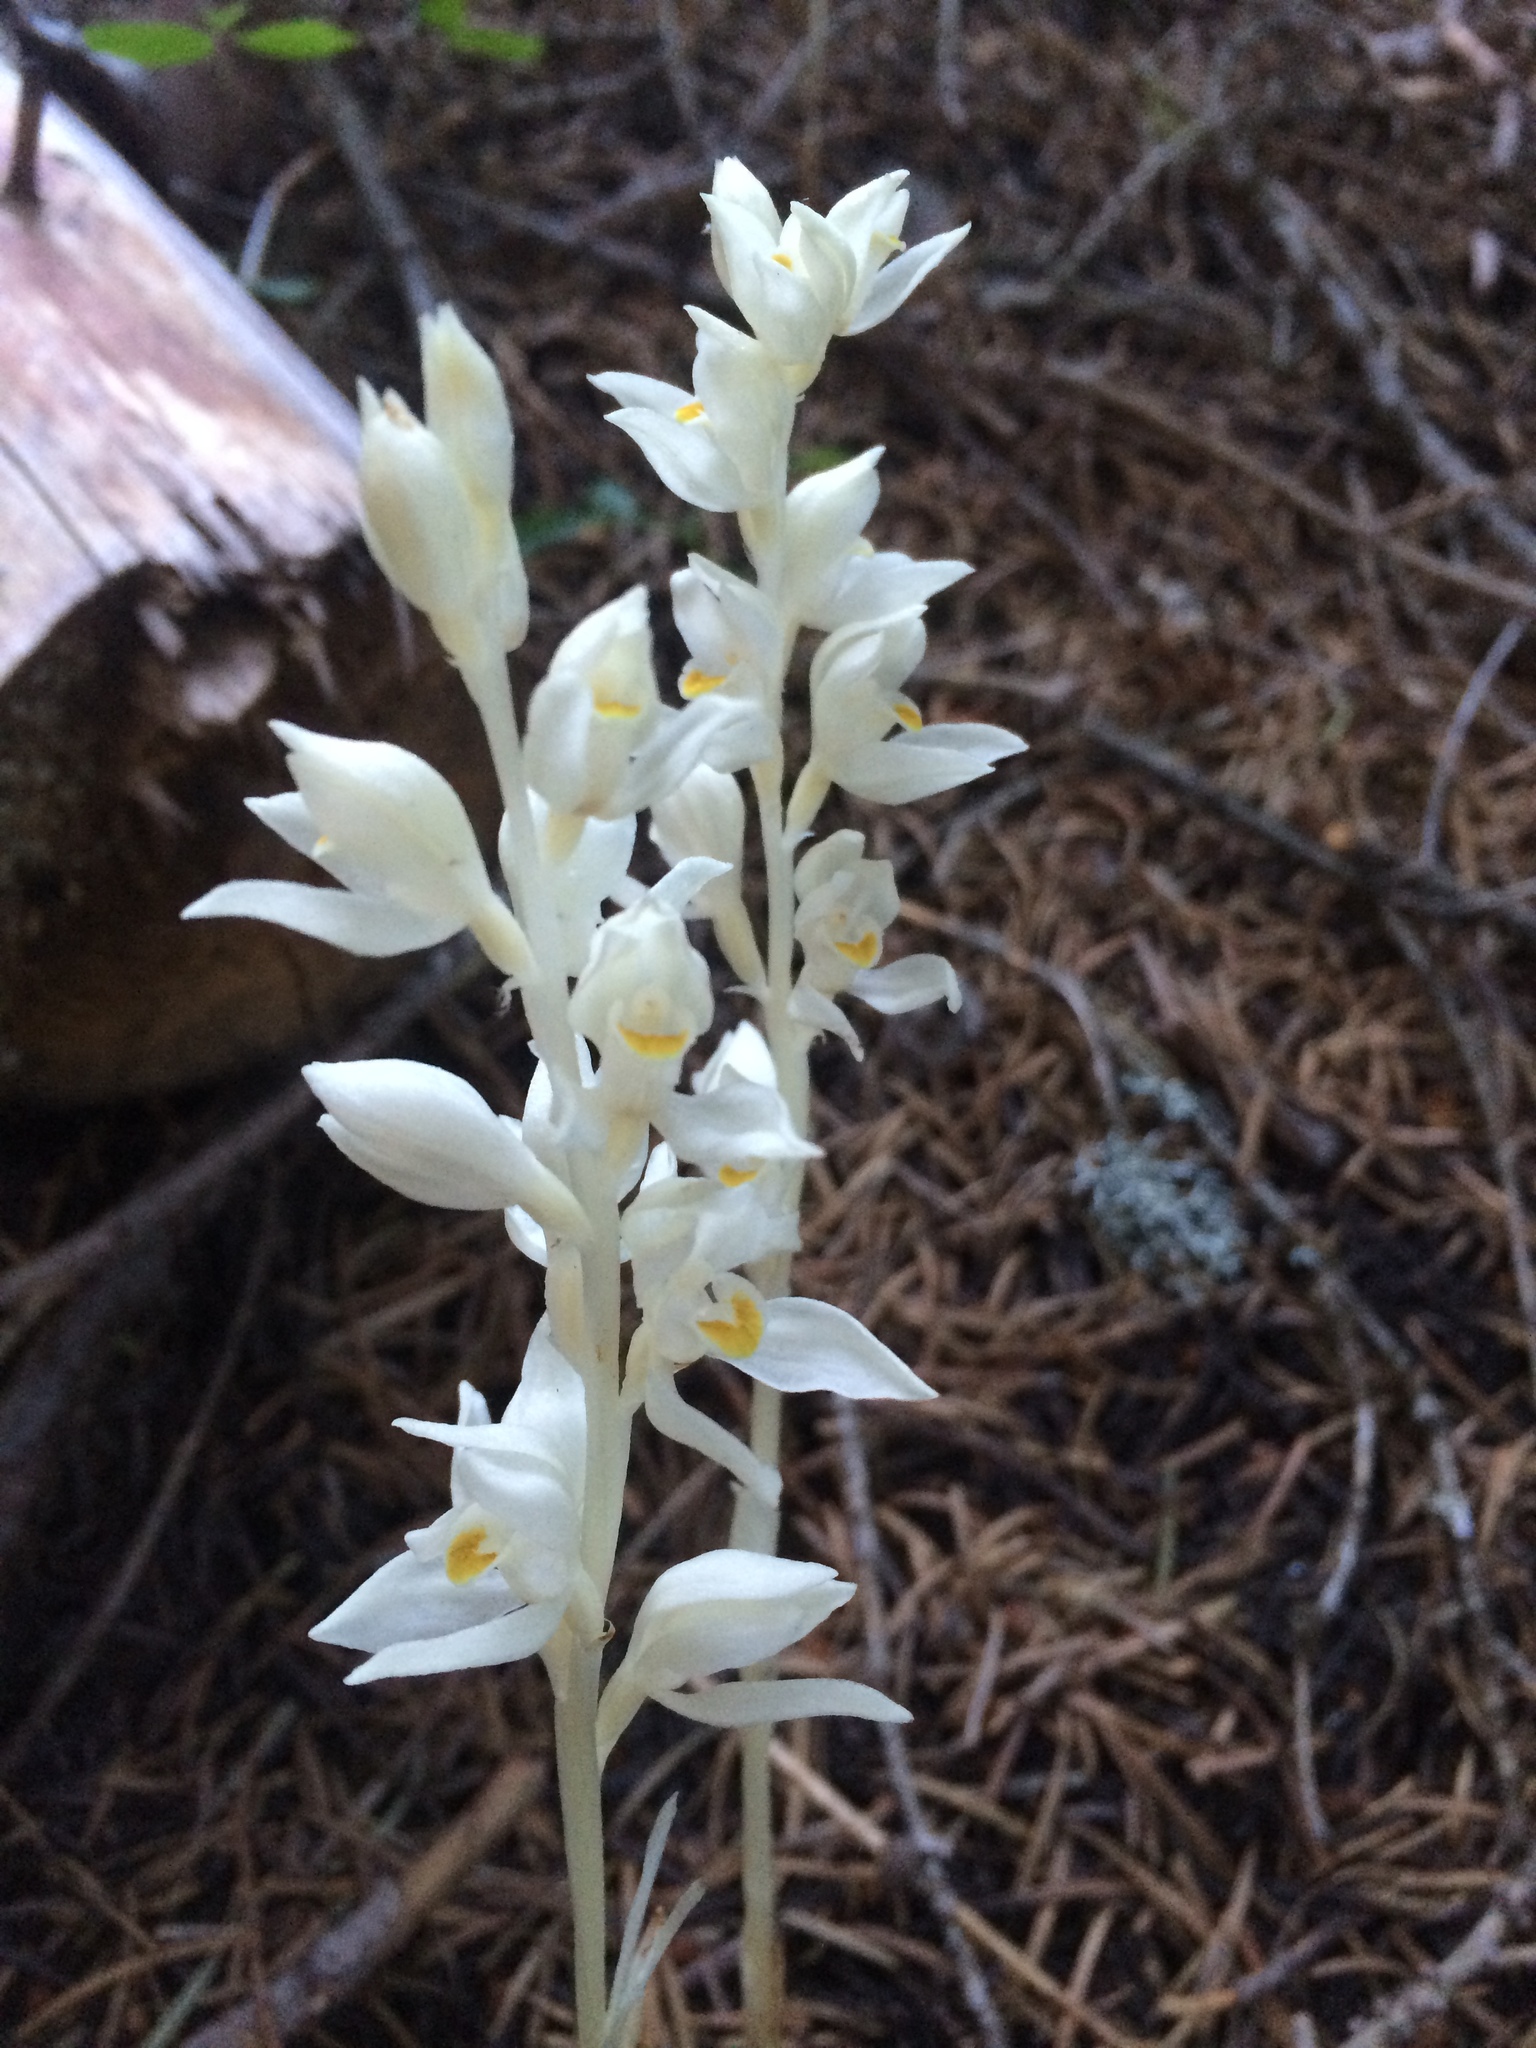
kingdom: Plantae
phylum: Tracheophyta
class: Liliopsida
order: Asparagales
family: Orchidaceae
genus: Cephalanthera
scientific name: Cephalanthera austiniae
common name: Phantom orchid
